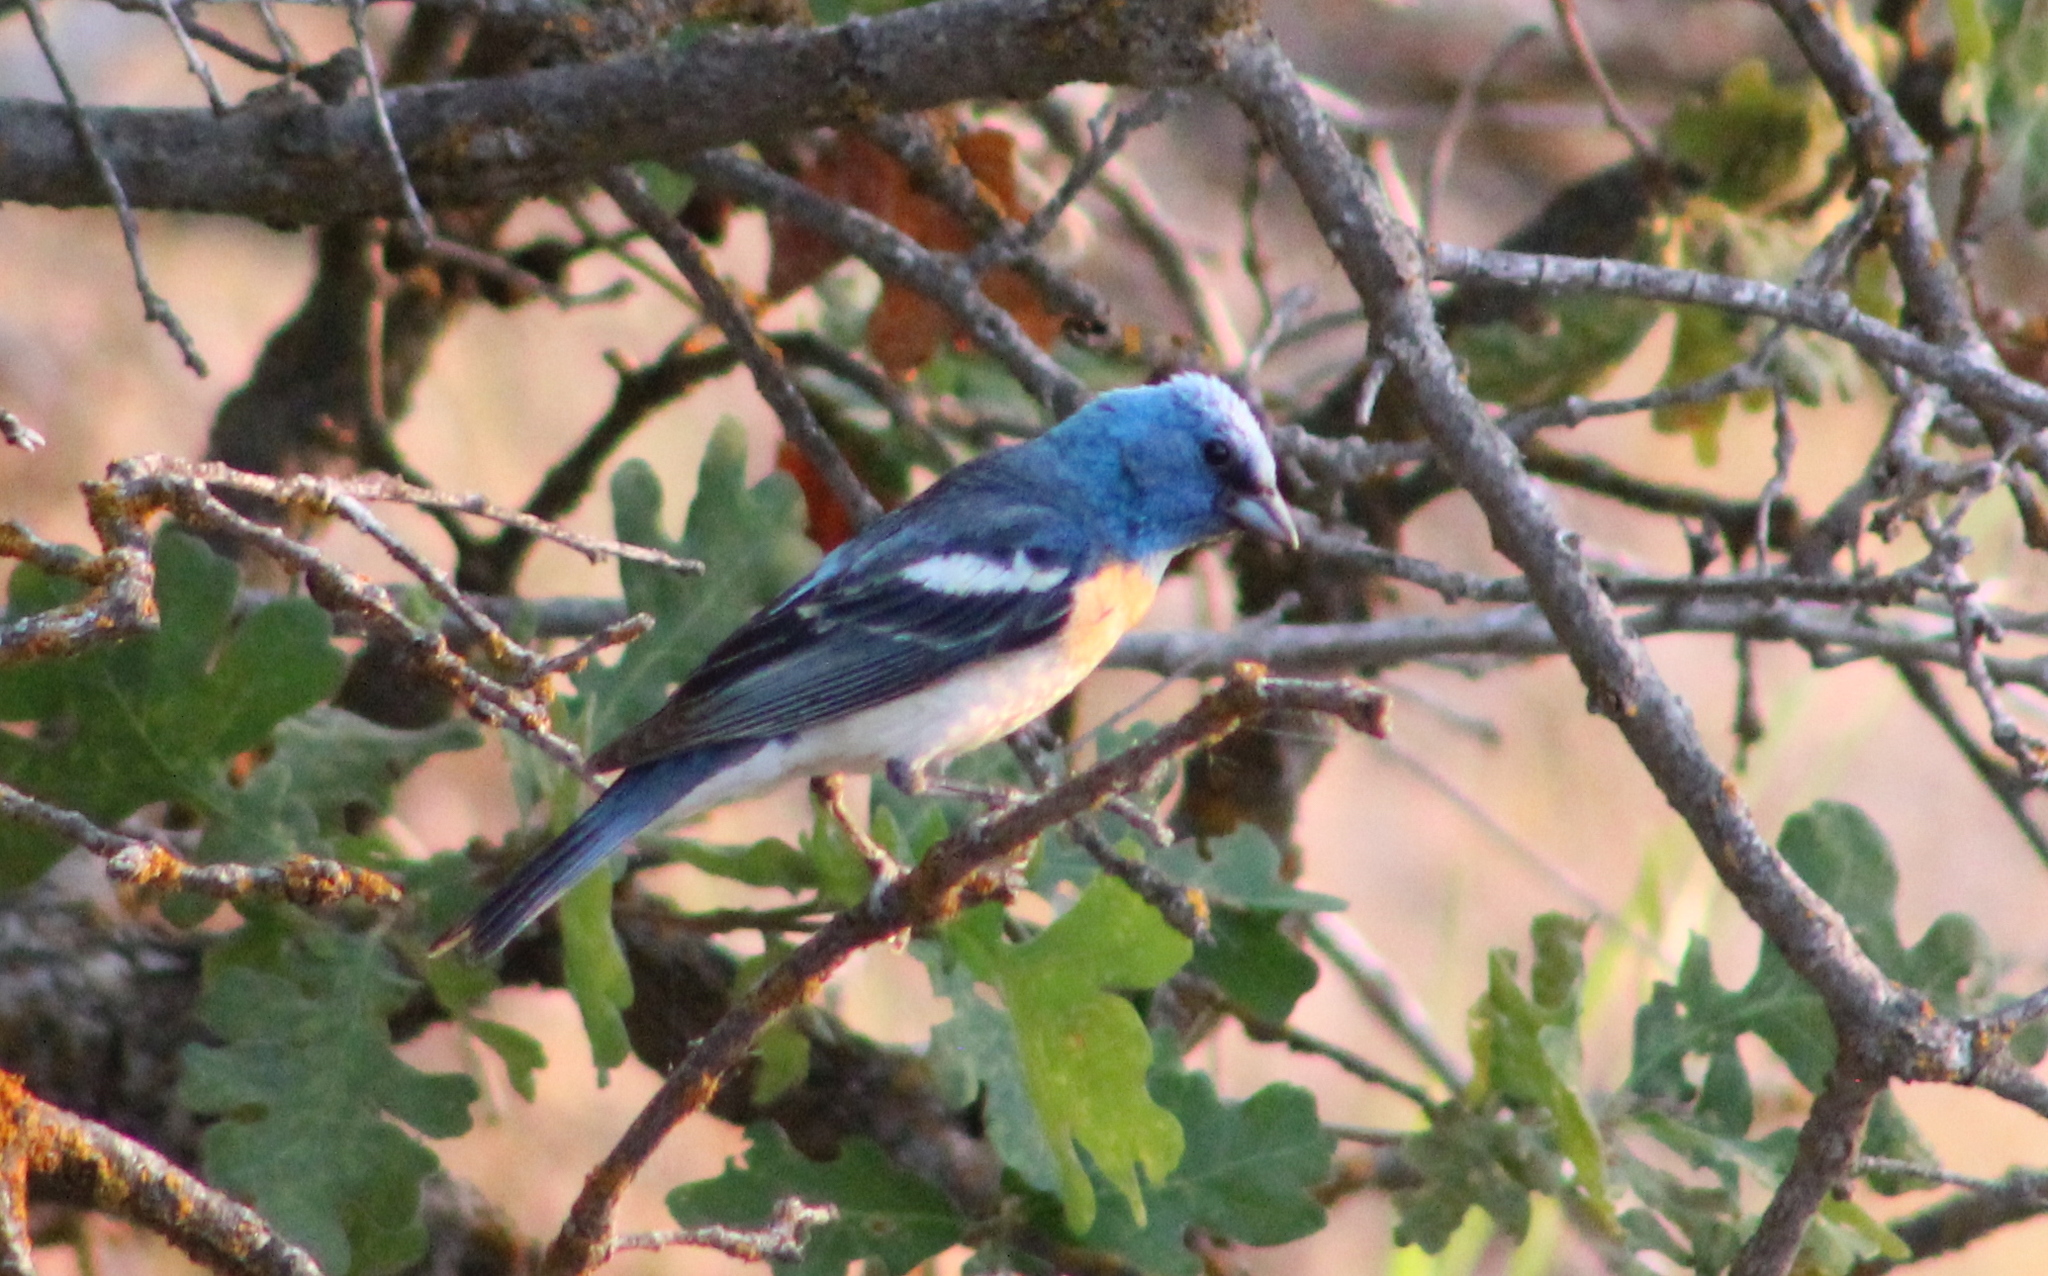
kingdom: Animalia
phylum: Chordata
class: Aves
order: Passeriformes
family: Cardinalidae
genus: Passerina
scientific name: Passerina amoena
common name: Lazuli bunting
